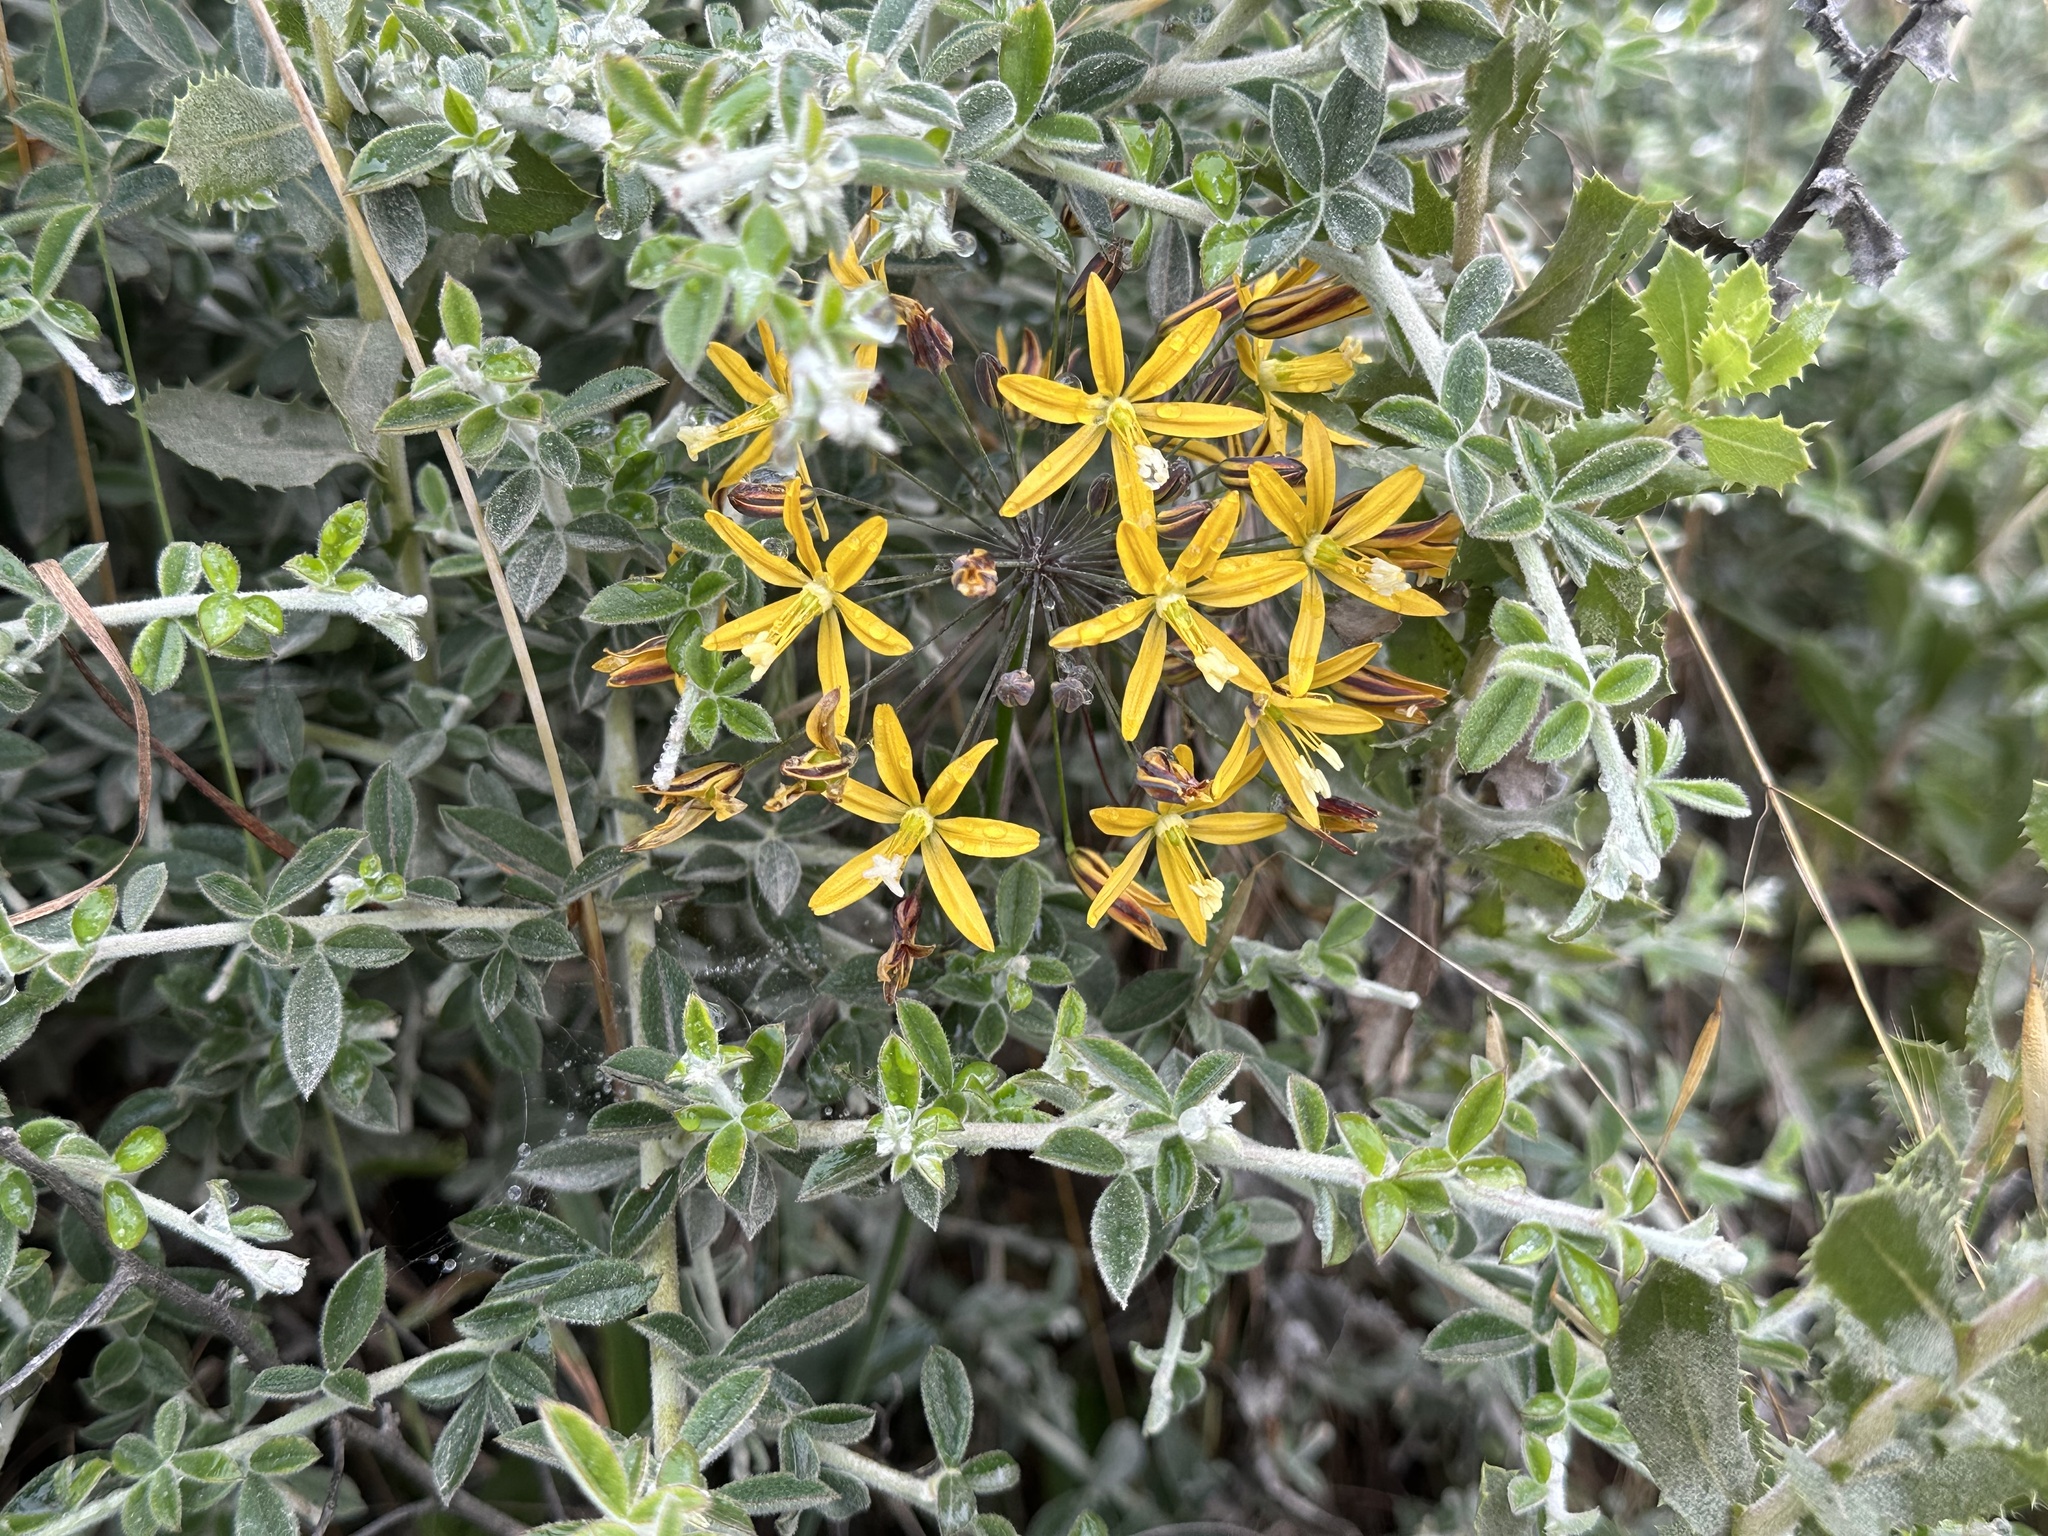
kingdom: Plantae
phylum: Tracheophyta
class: Liliopsida
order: Asparagales
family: Asparagaceae
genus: Bloomeria
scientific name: Bloomeria crocea
